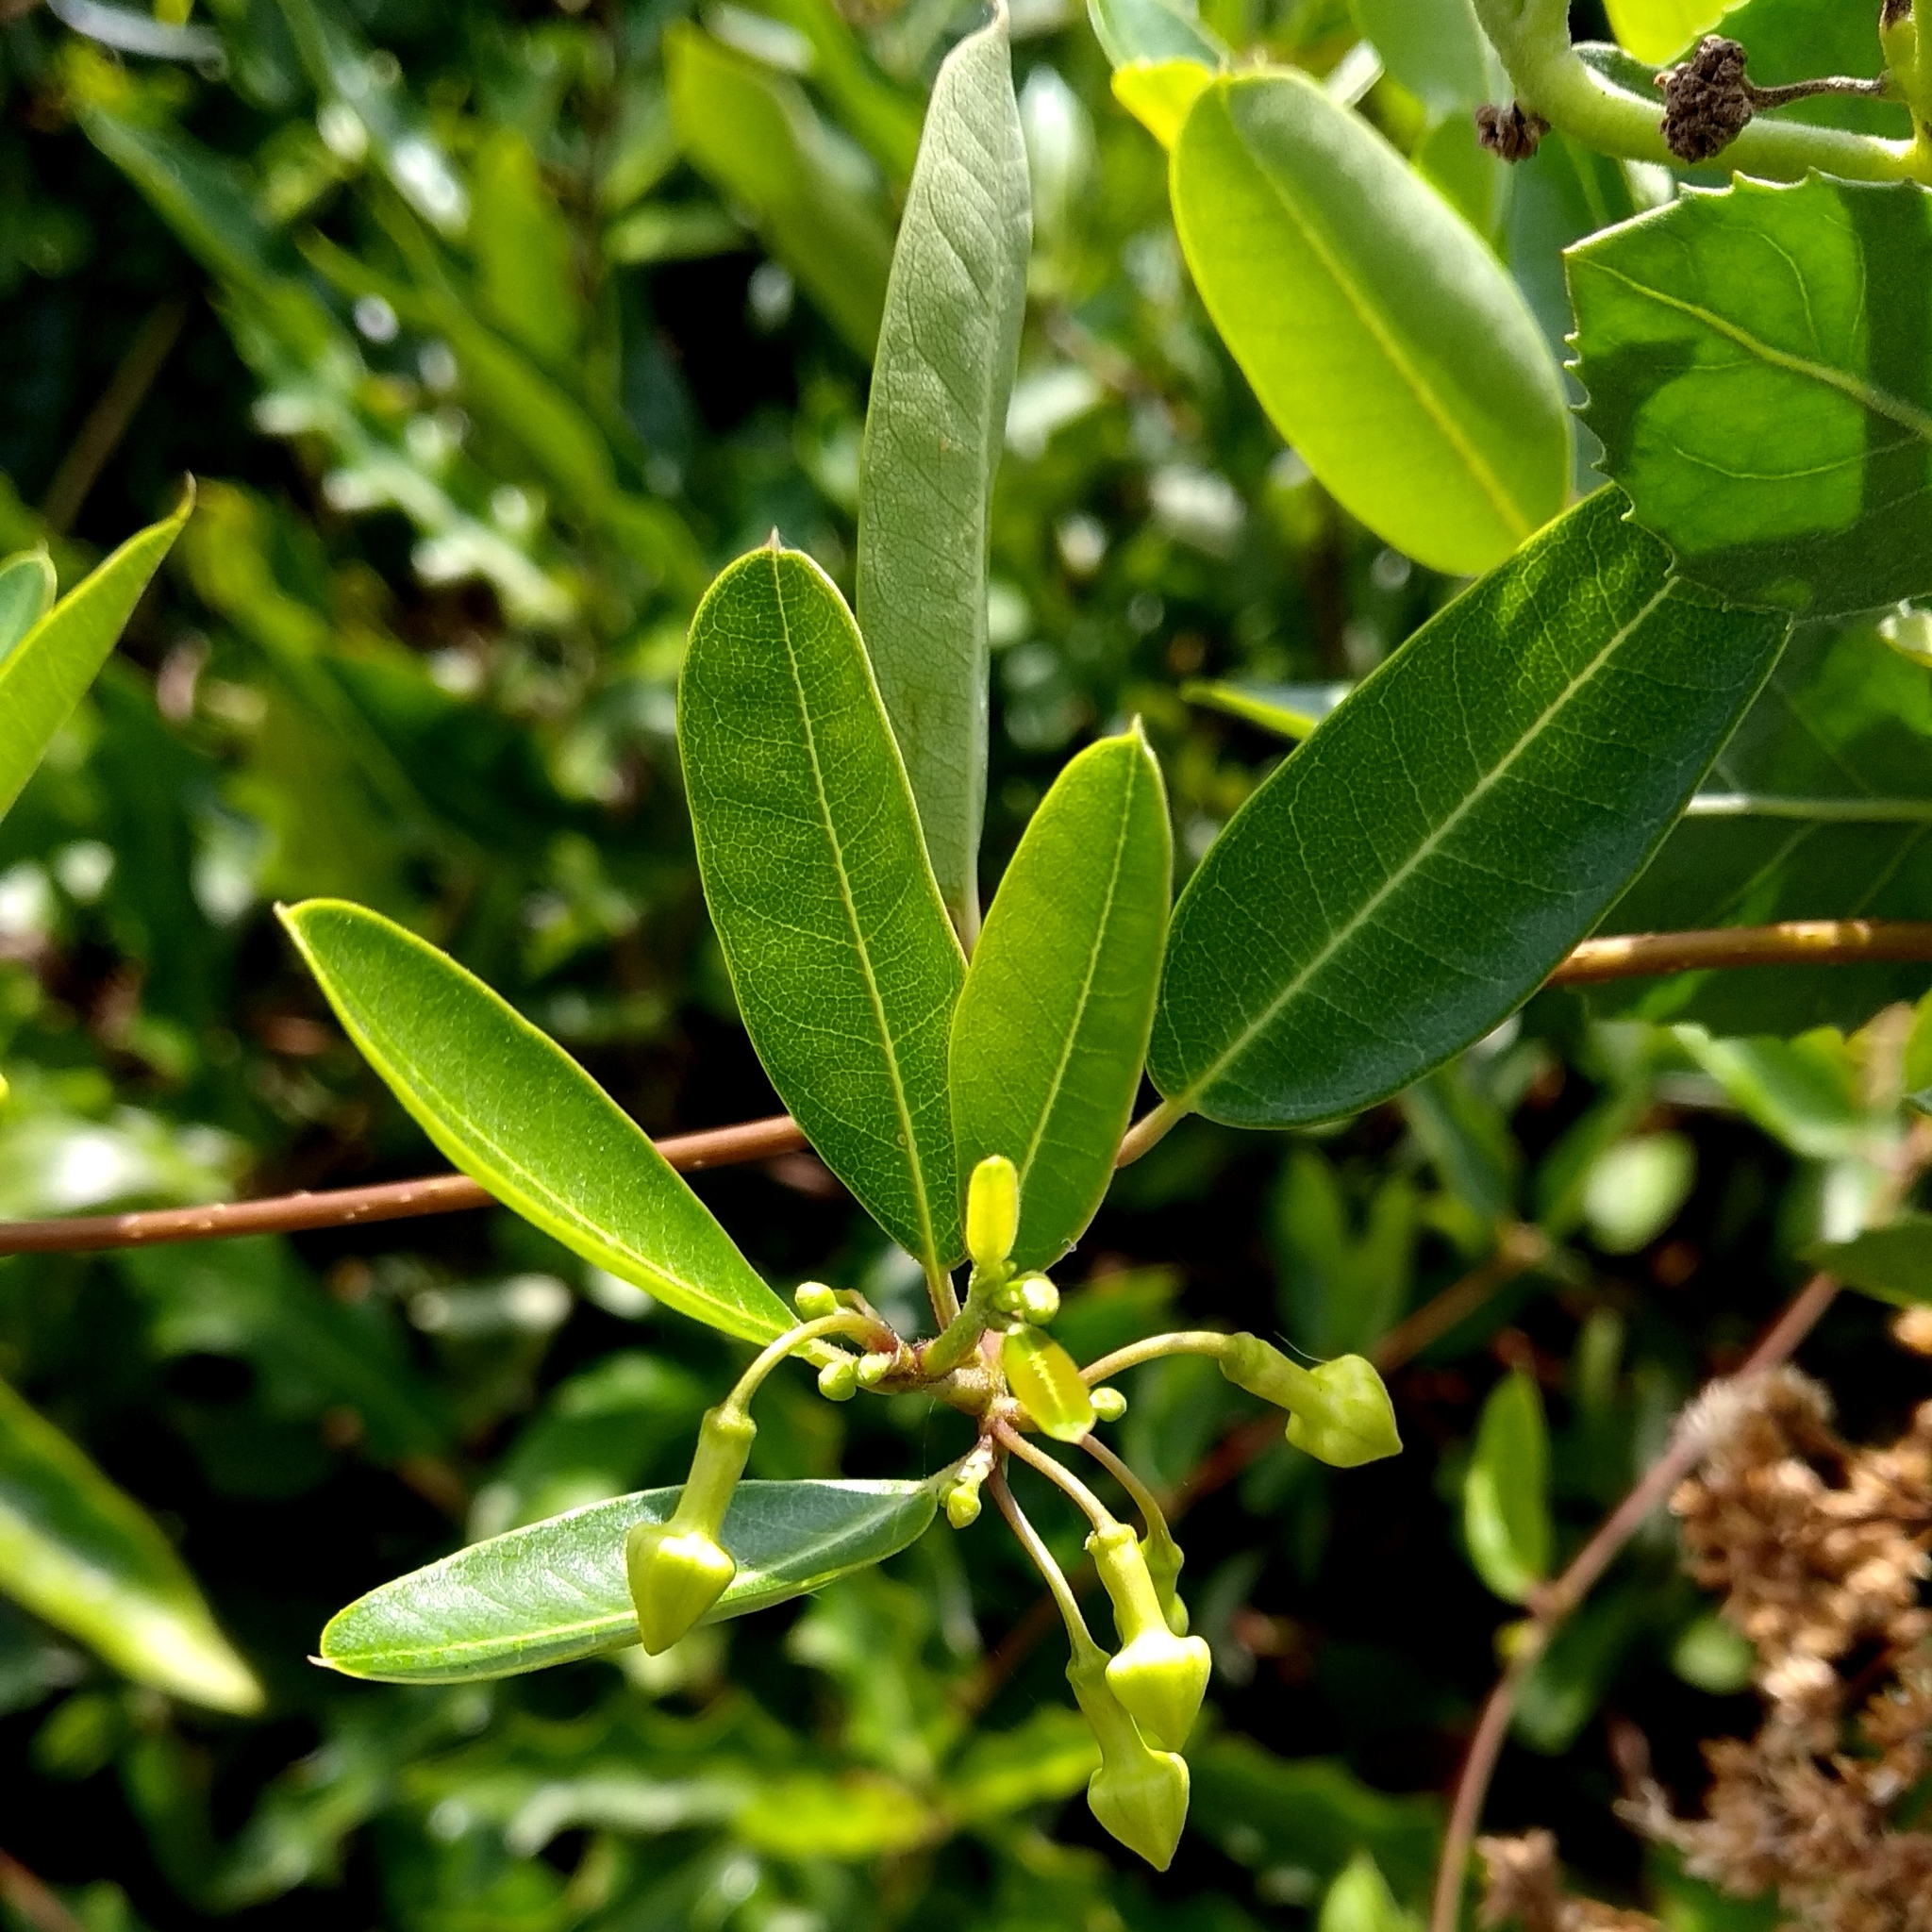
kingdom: Plantae
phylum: Tracheophyta
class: Magnoliopsida
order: Gentianales
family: Apocynaceae
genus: Gymnanthera
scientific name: Gymnanthera oblonga
